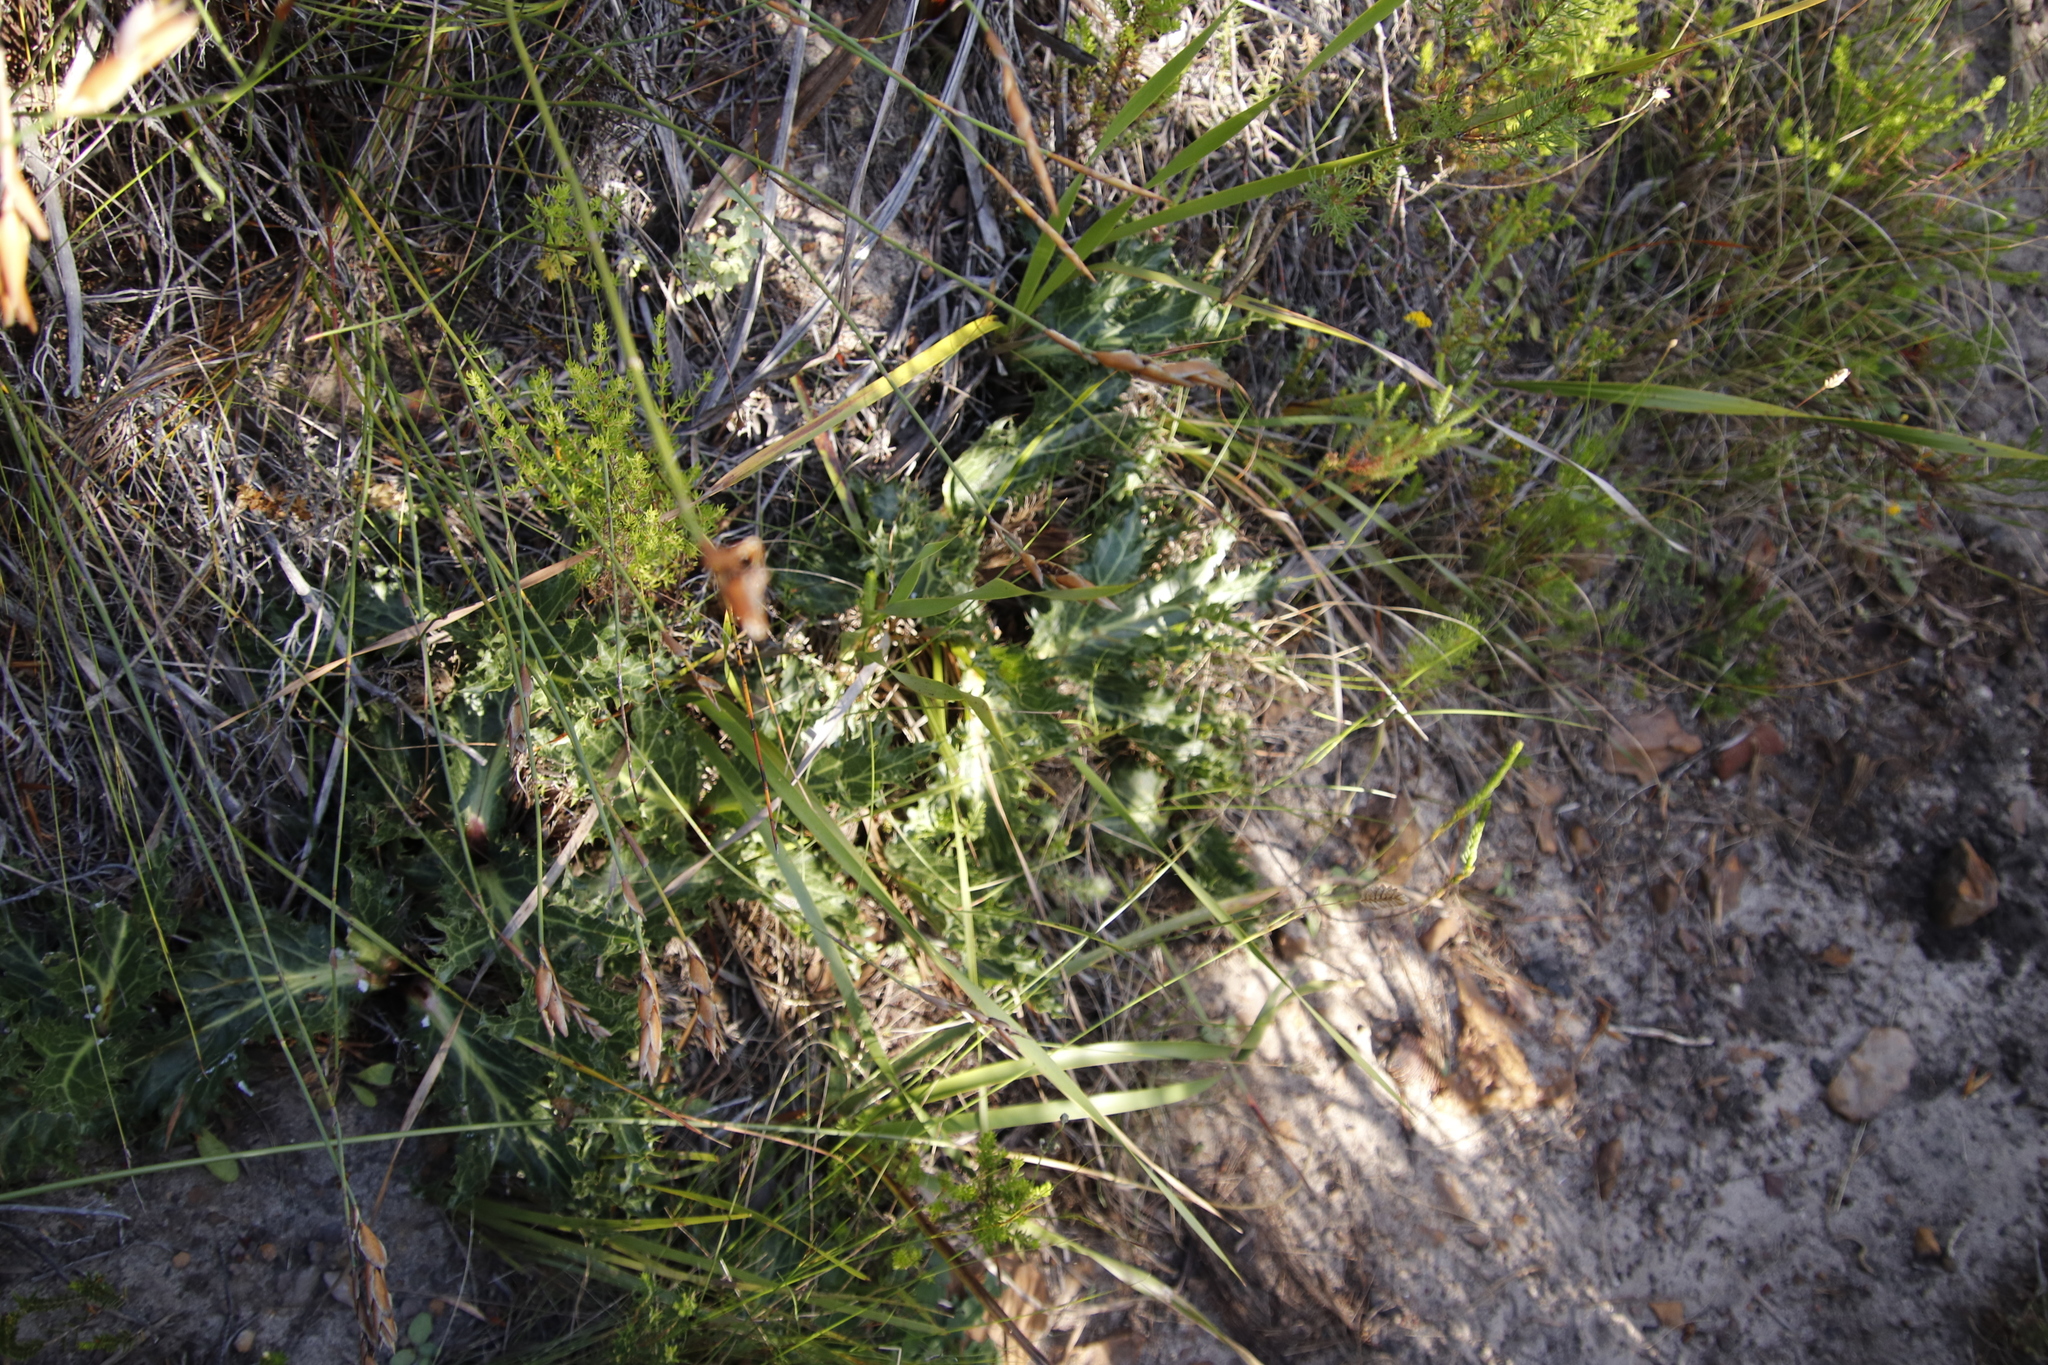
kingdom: Plantae
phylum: Tracheophyta
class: Magnoliopsida
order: Apiales
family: Apiaceae
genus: Lichtensteinia
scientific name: Lichtensteinia lacera
